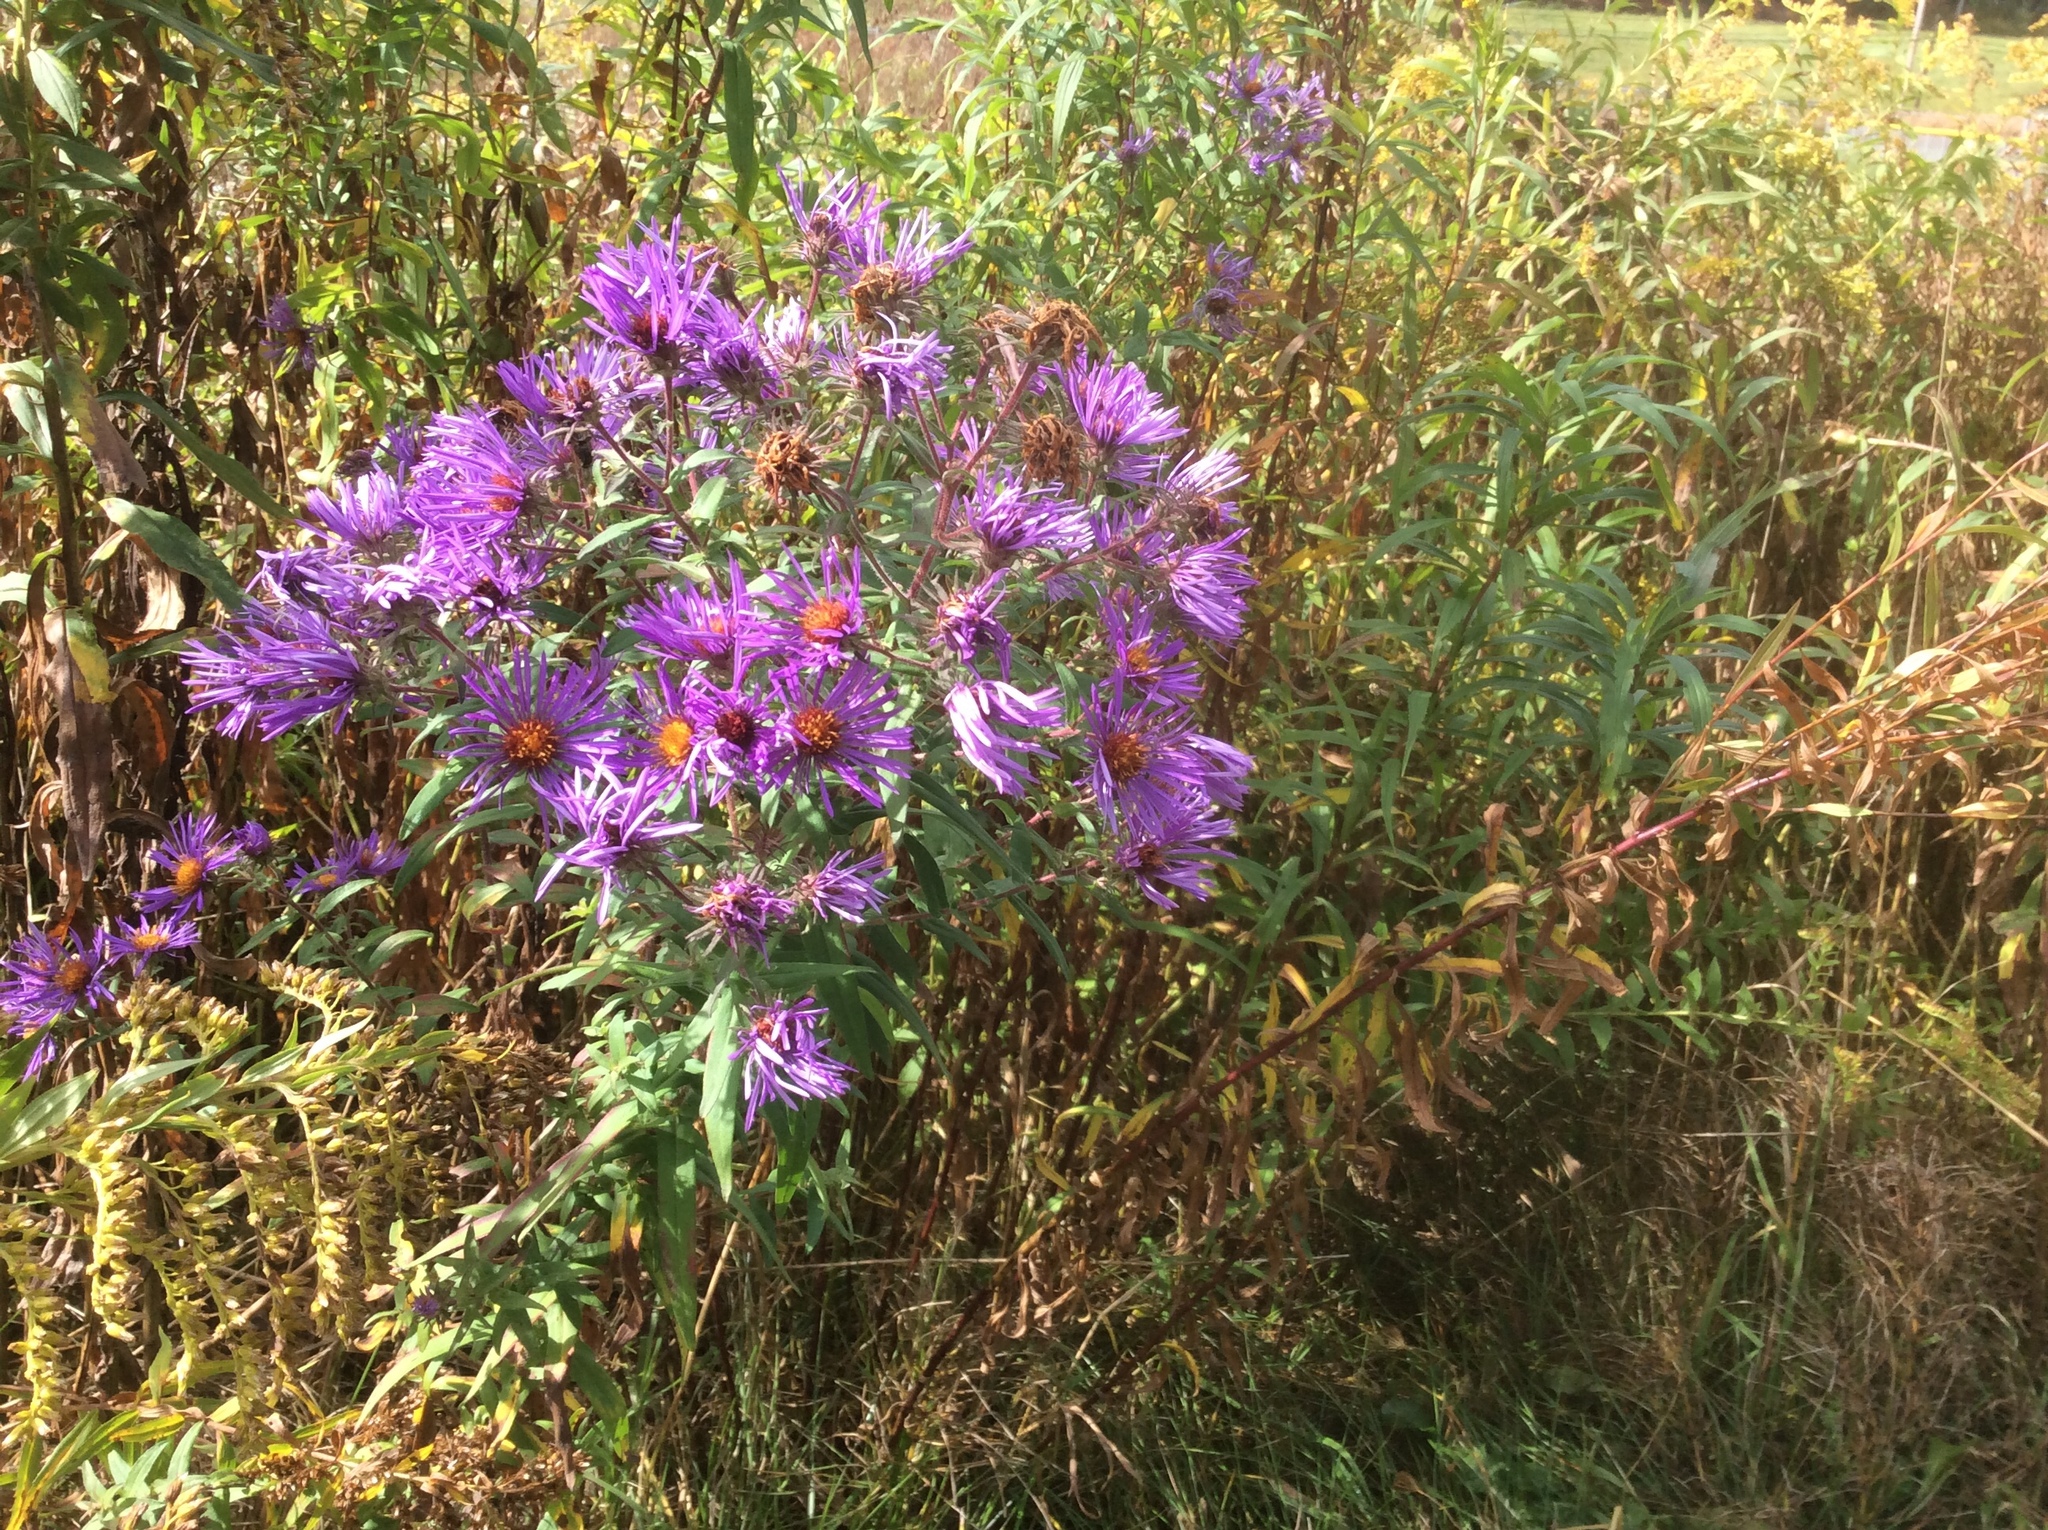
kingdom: Plantae
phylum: Tracheophyta
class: Magnoliopsida
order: Asterales
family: Asteraceae
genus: Symphyotrichum
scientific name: Symphyotrichum novae-angliae
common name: Michaelmas daisy
